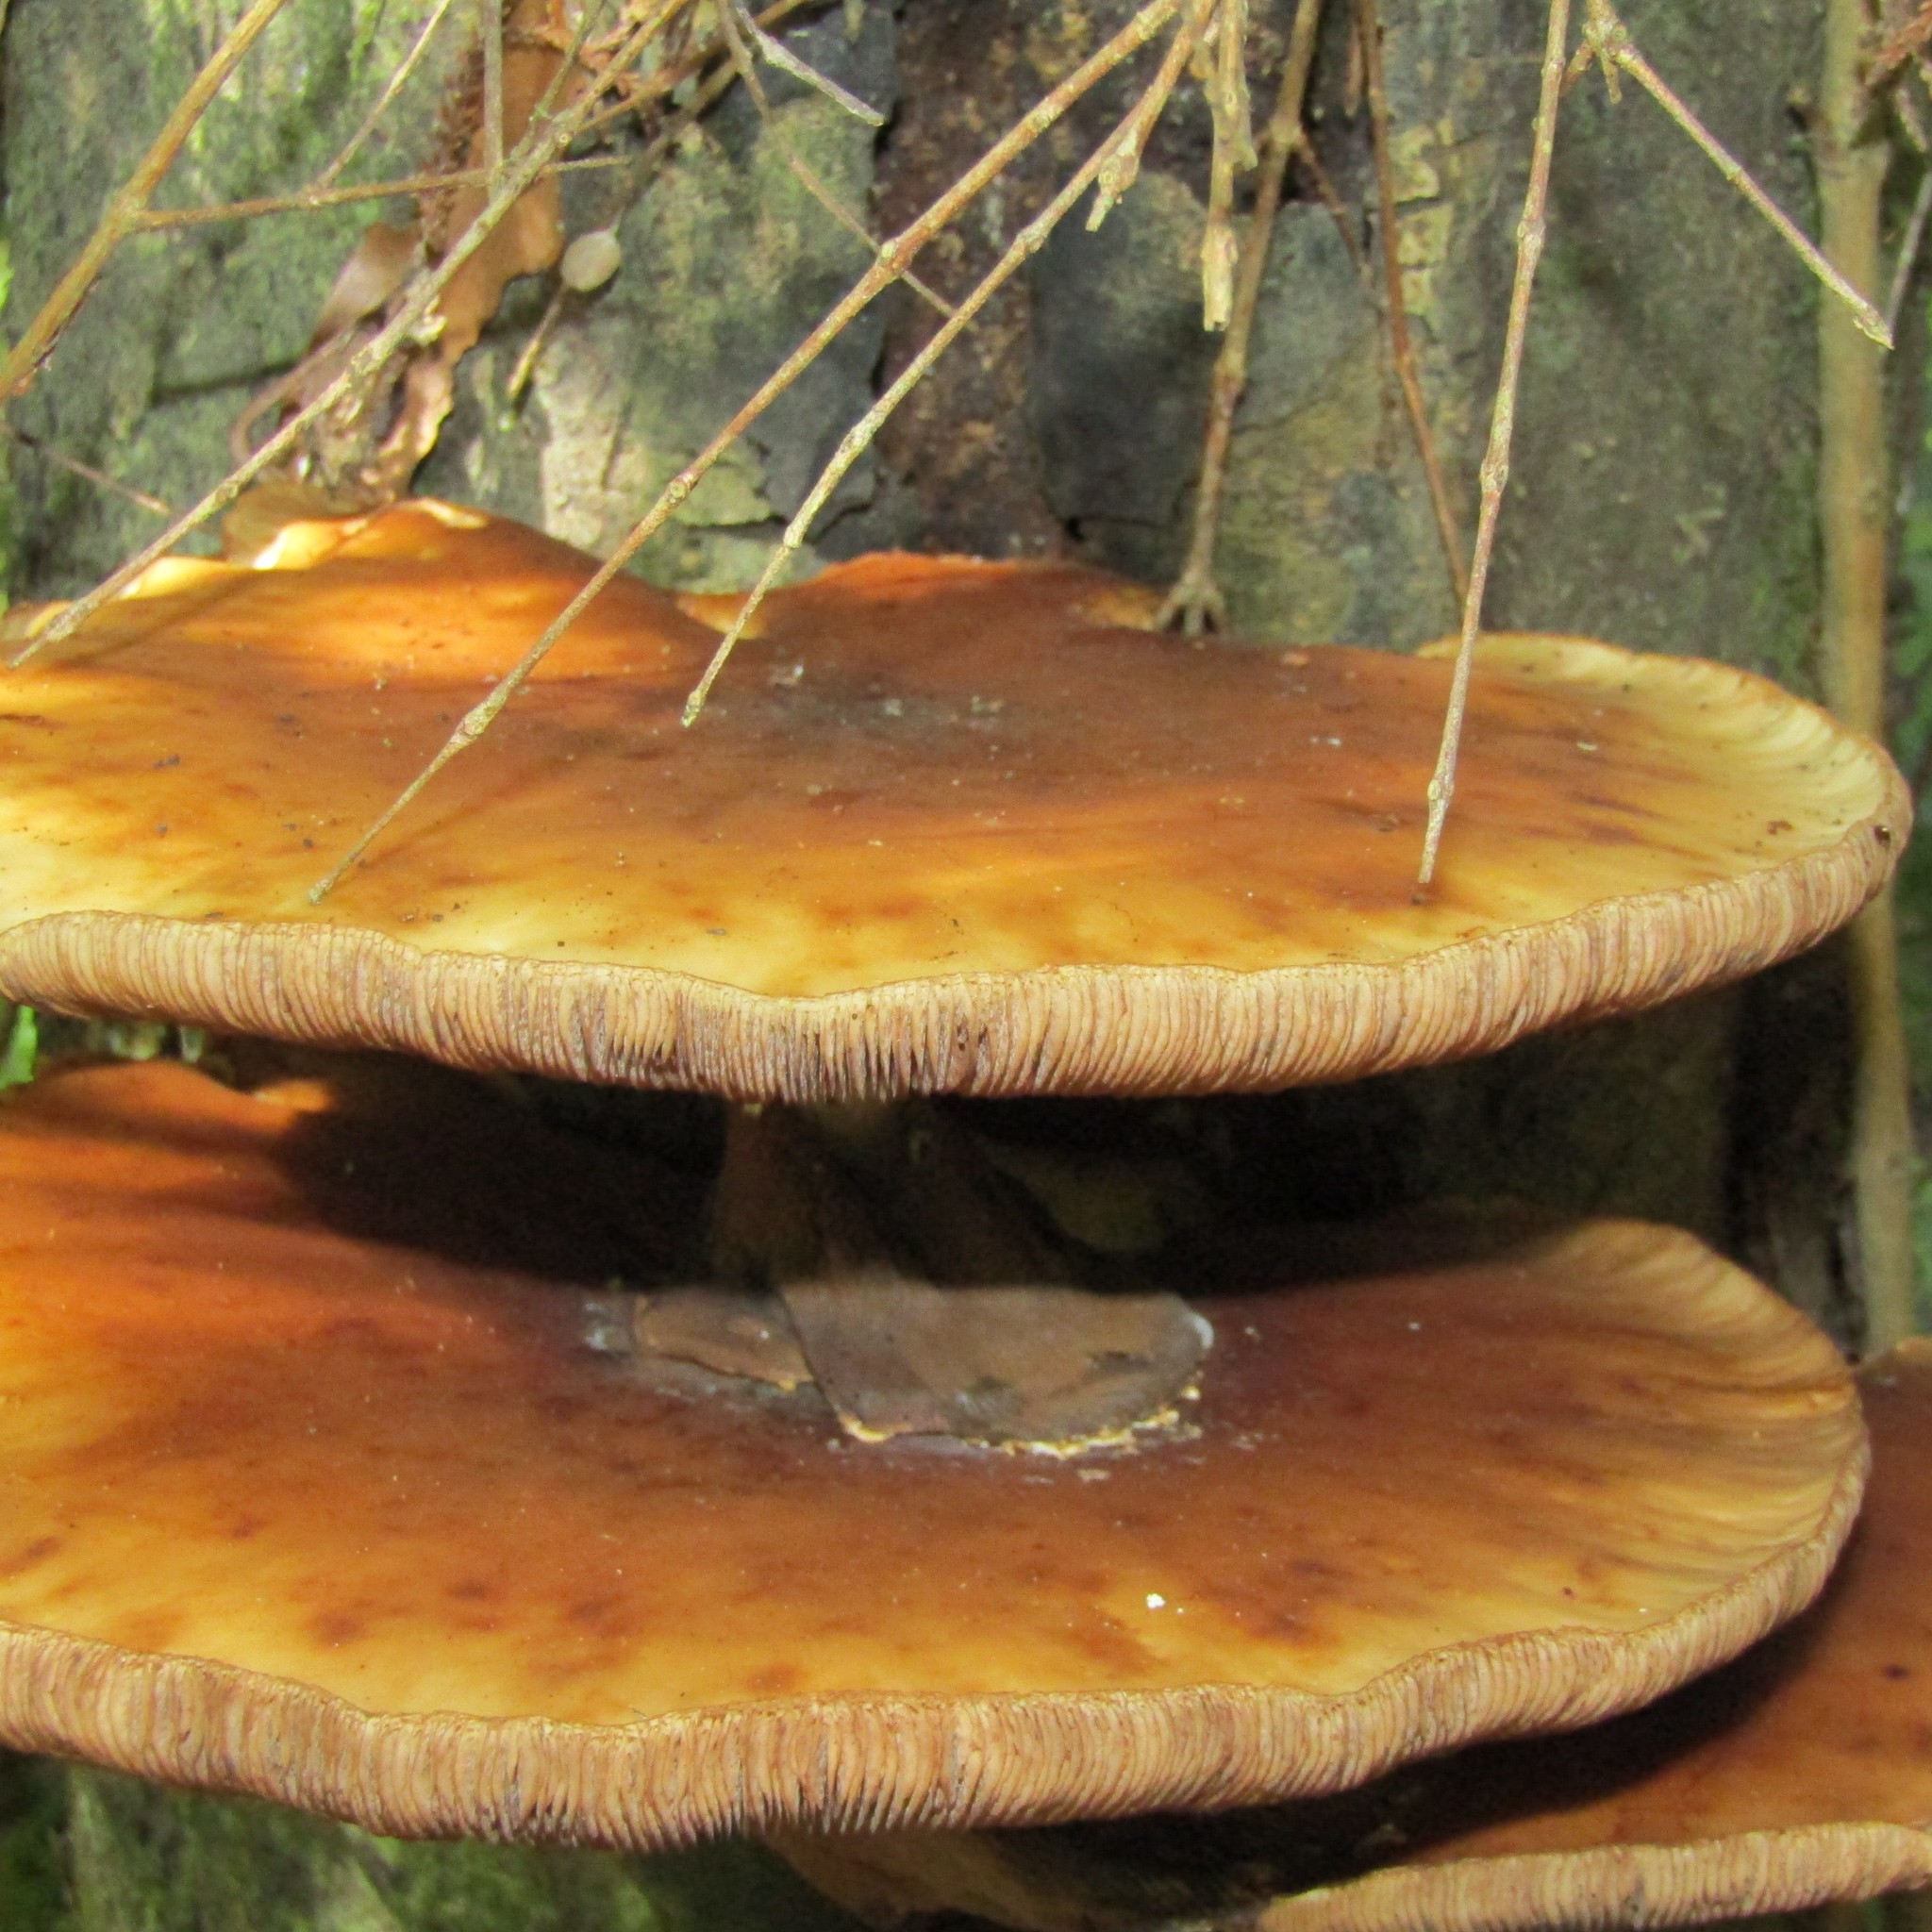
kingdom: Fungi
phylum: Basidiomycota
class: Agaricomycetes
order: Agaricales
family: Tubariaceae
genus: Cyclocybe
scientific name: Cyclocybe parasitica
